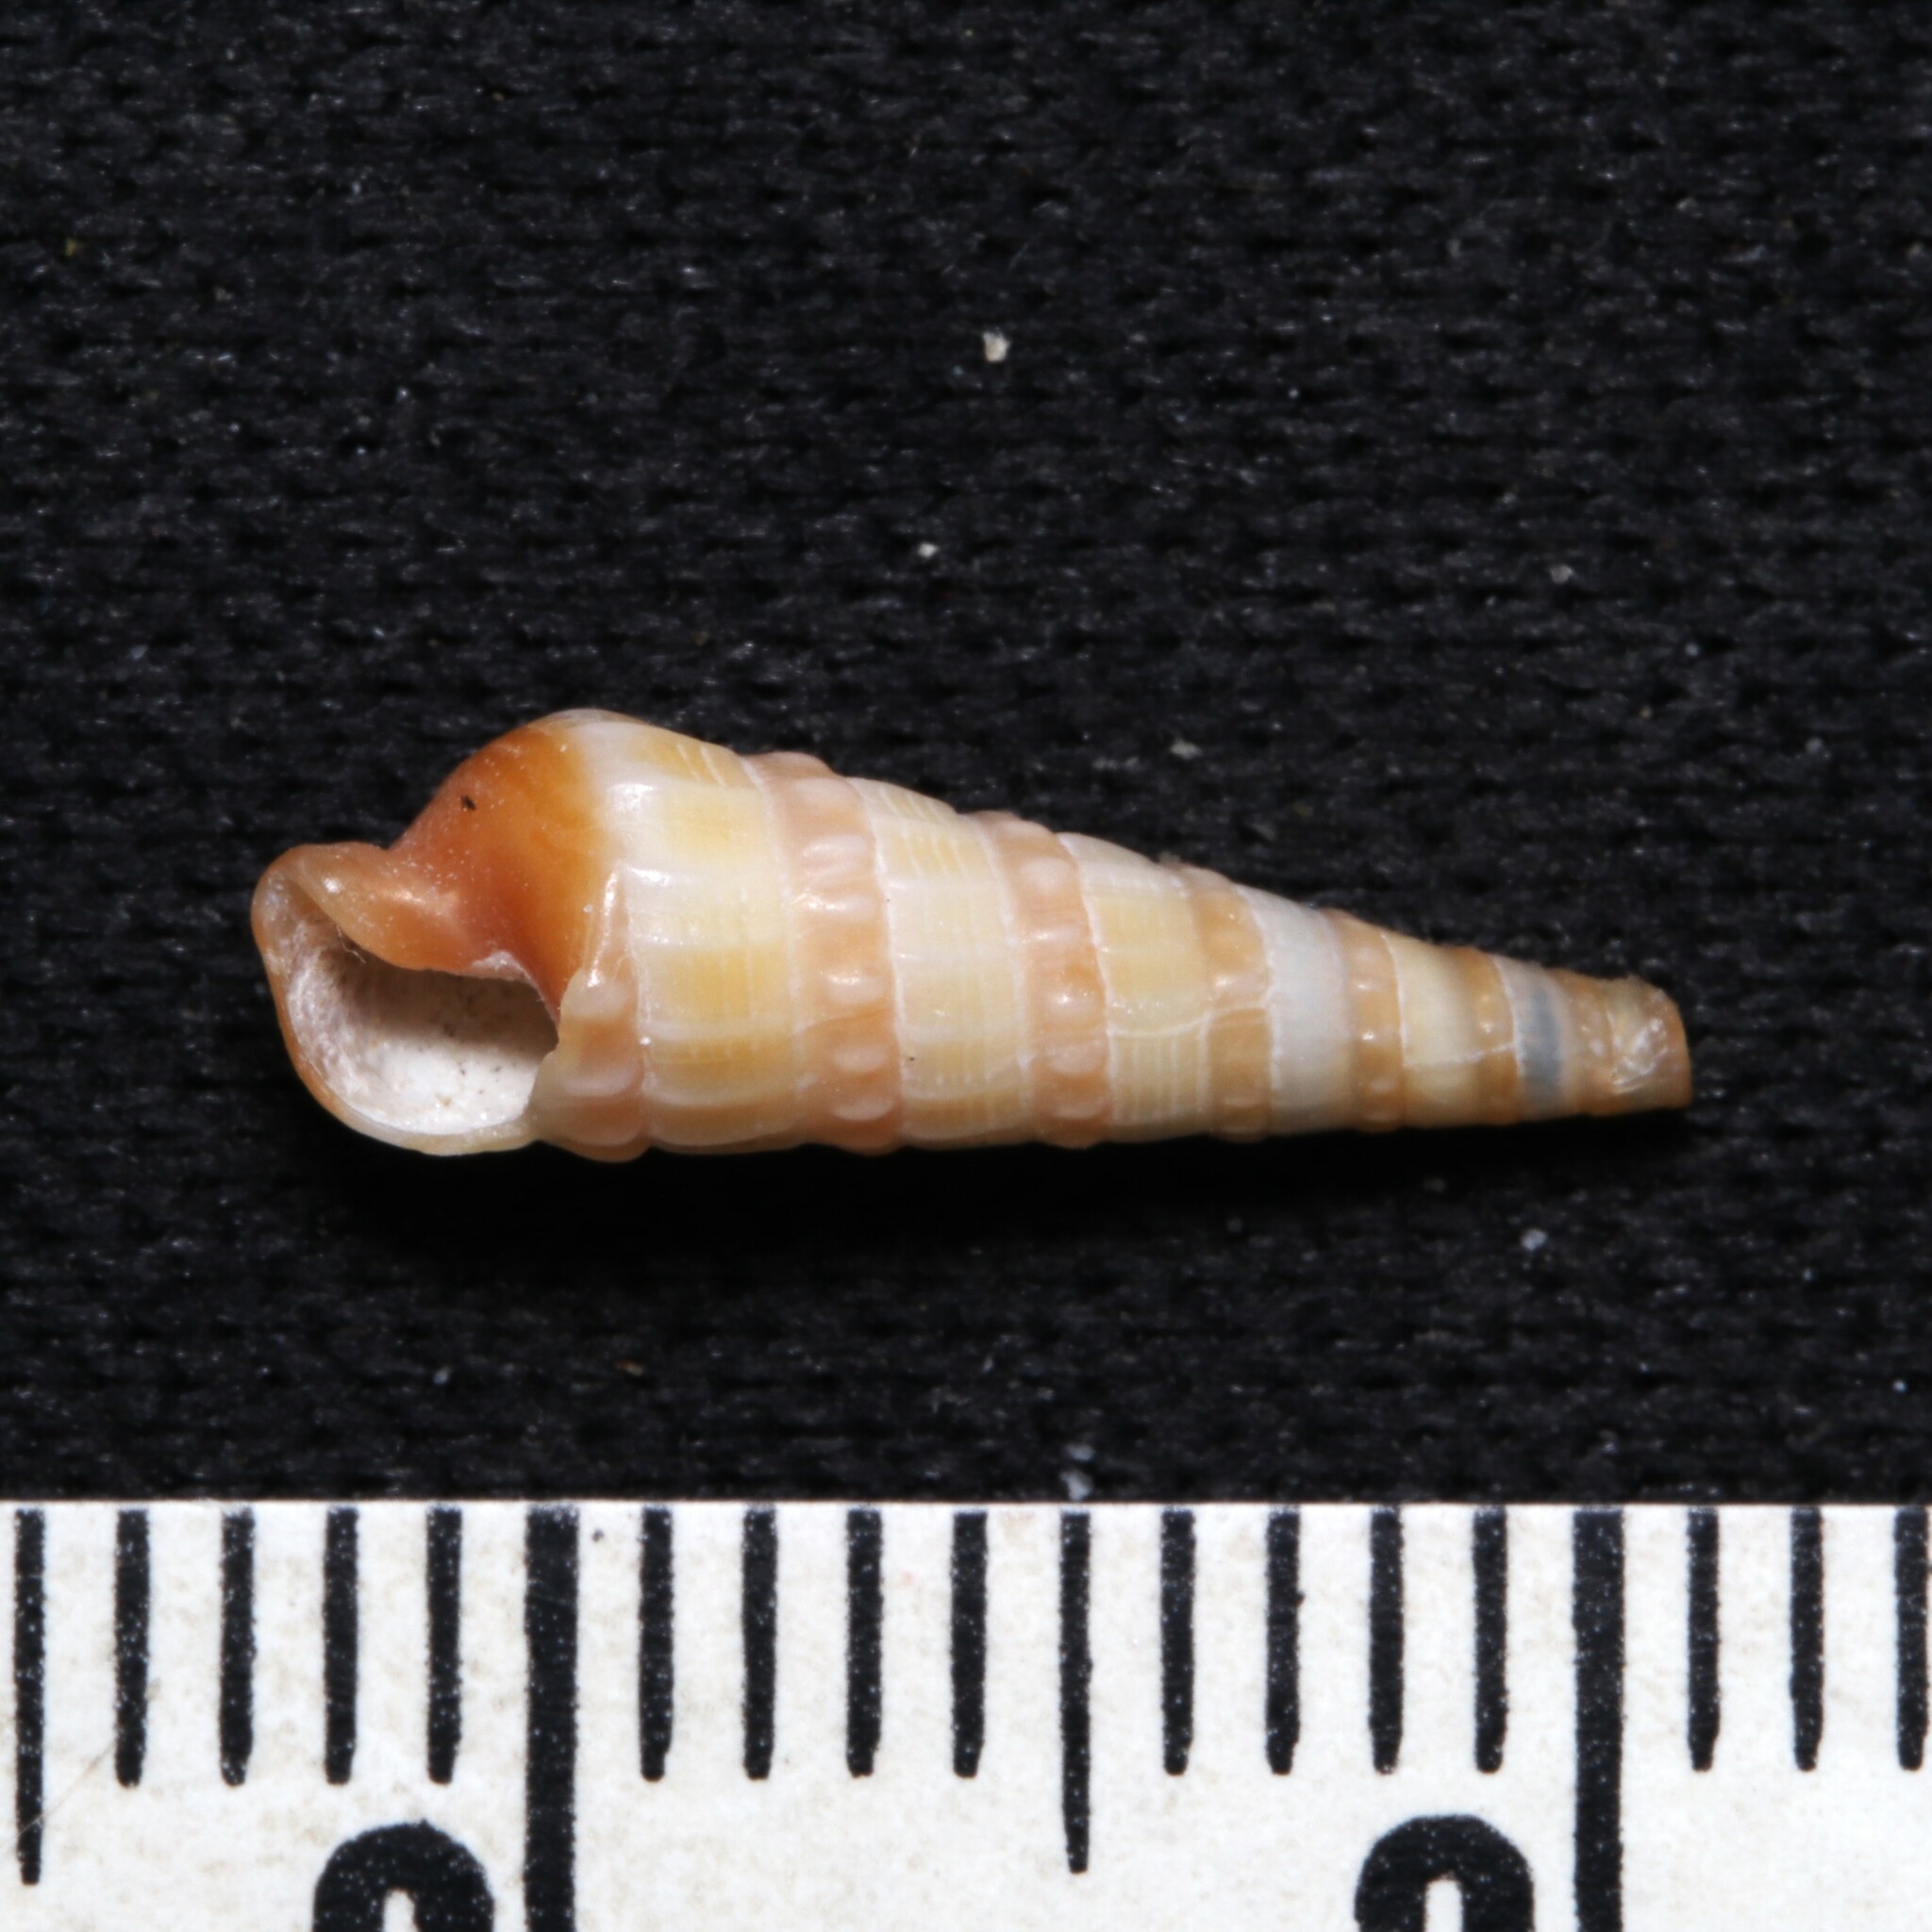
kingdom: Animalia
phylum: Mollusca
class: Gastropoda
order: Neogastropoda
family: Terebridae
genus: Neoterebra
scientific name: Neoterebra dislocata
